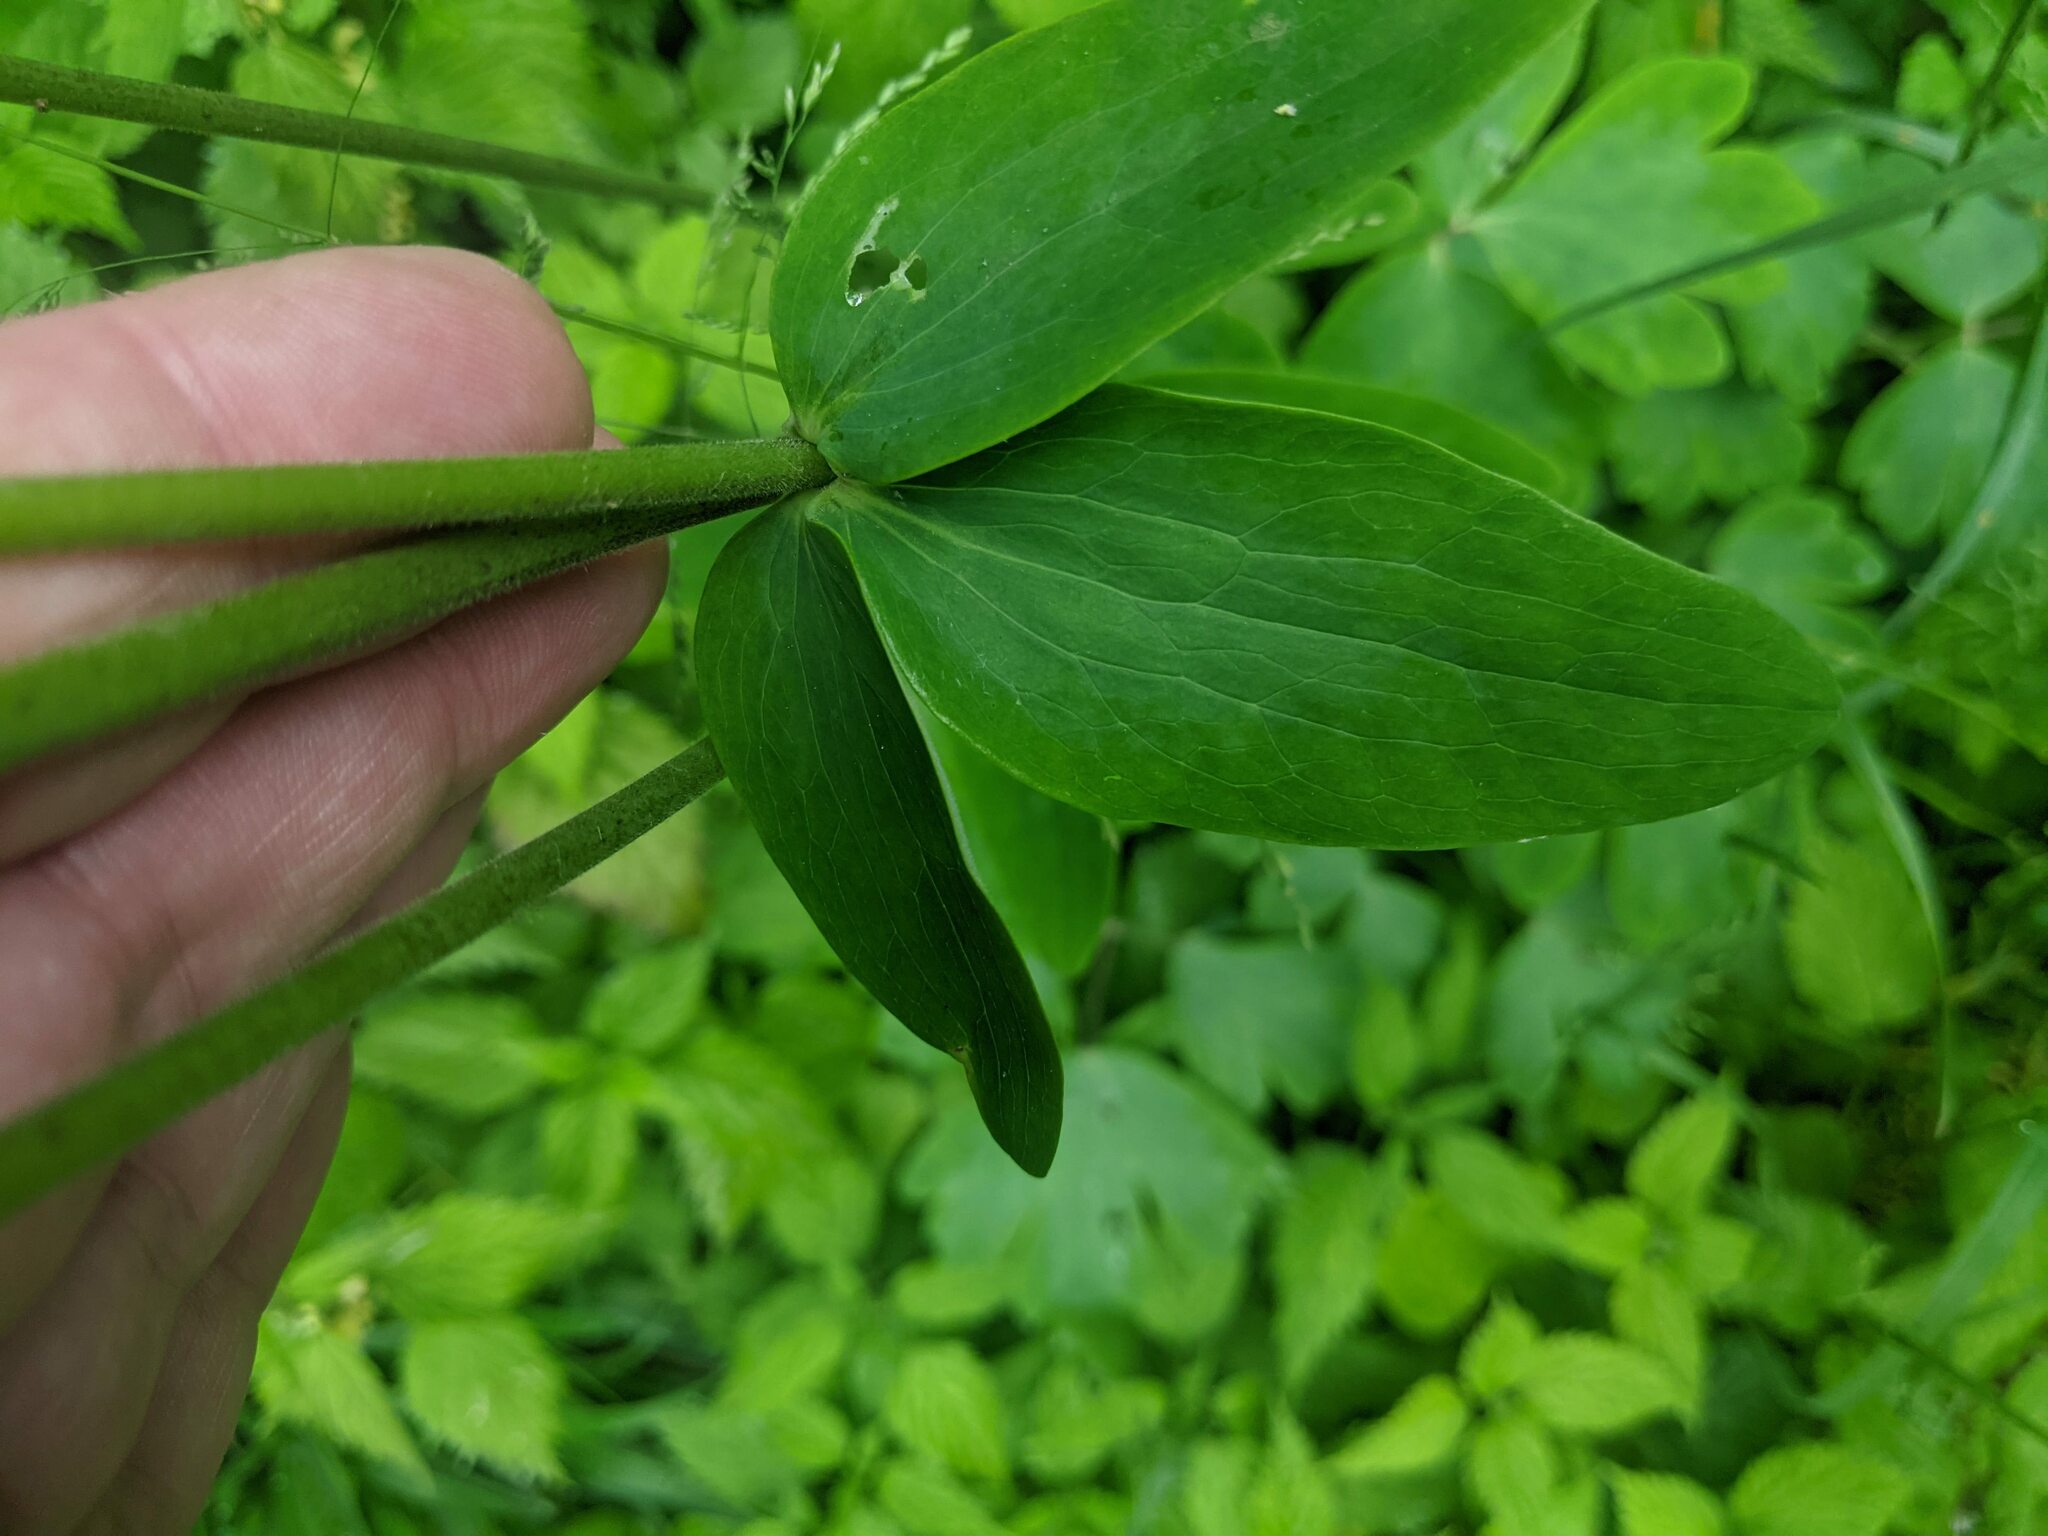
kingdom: Plantae
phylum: Tracheophyta
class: Magnoliopsida
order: Ranunculales
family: Ranunculaceae
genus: Aquilegia
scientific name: Aquilegia vulgaris
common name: Columbine
